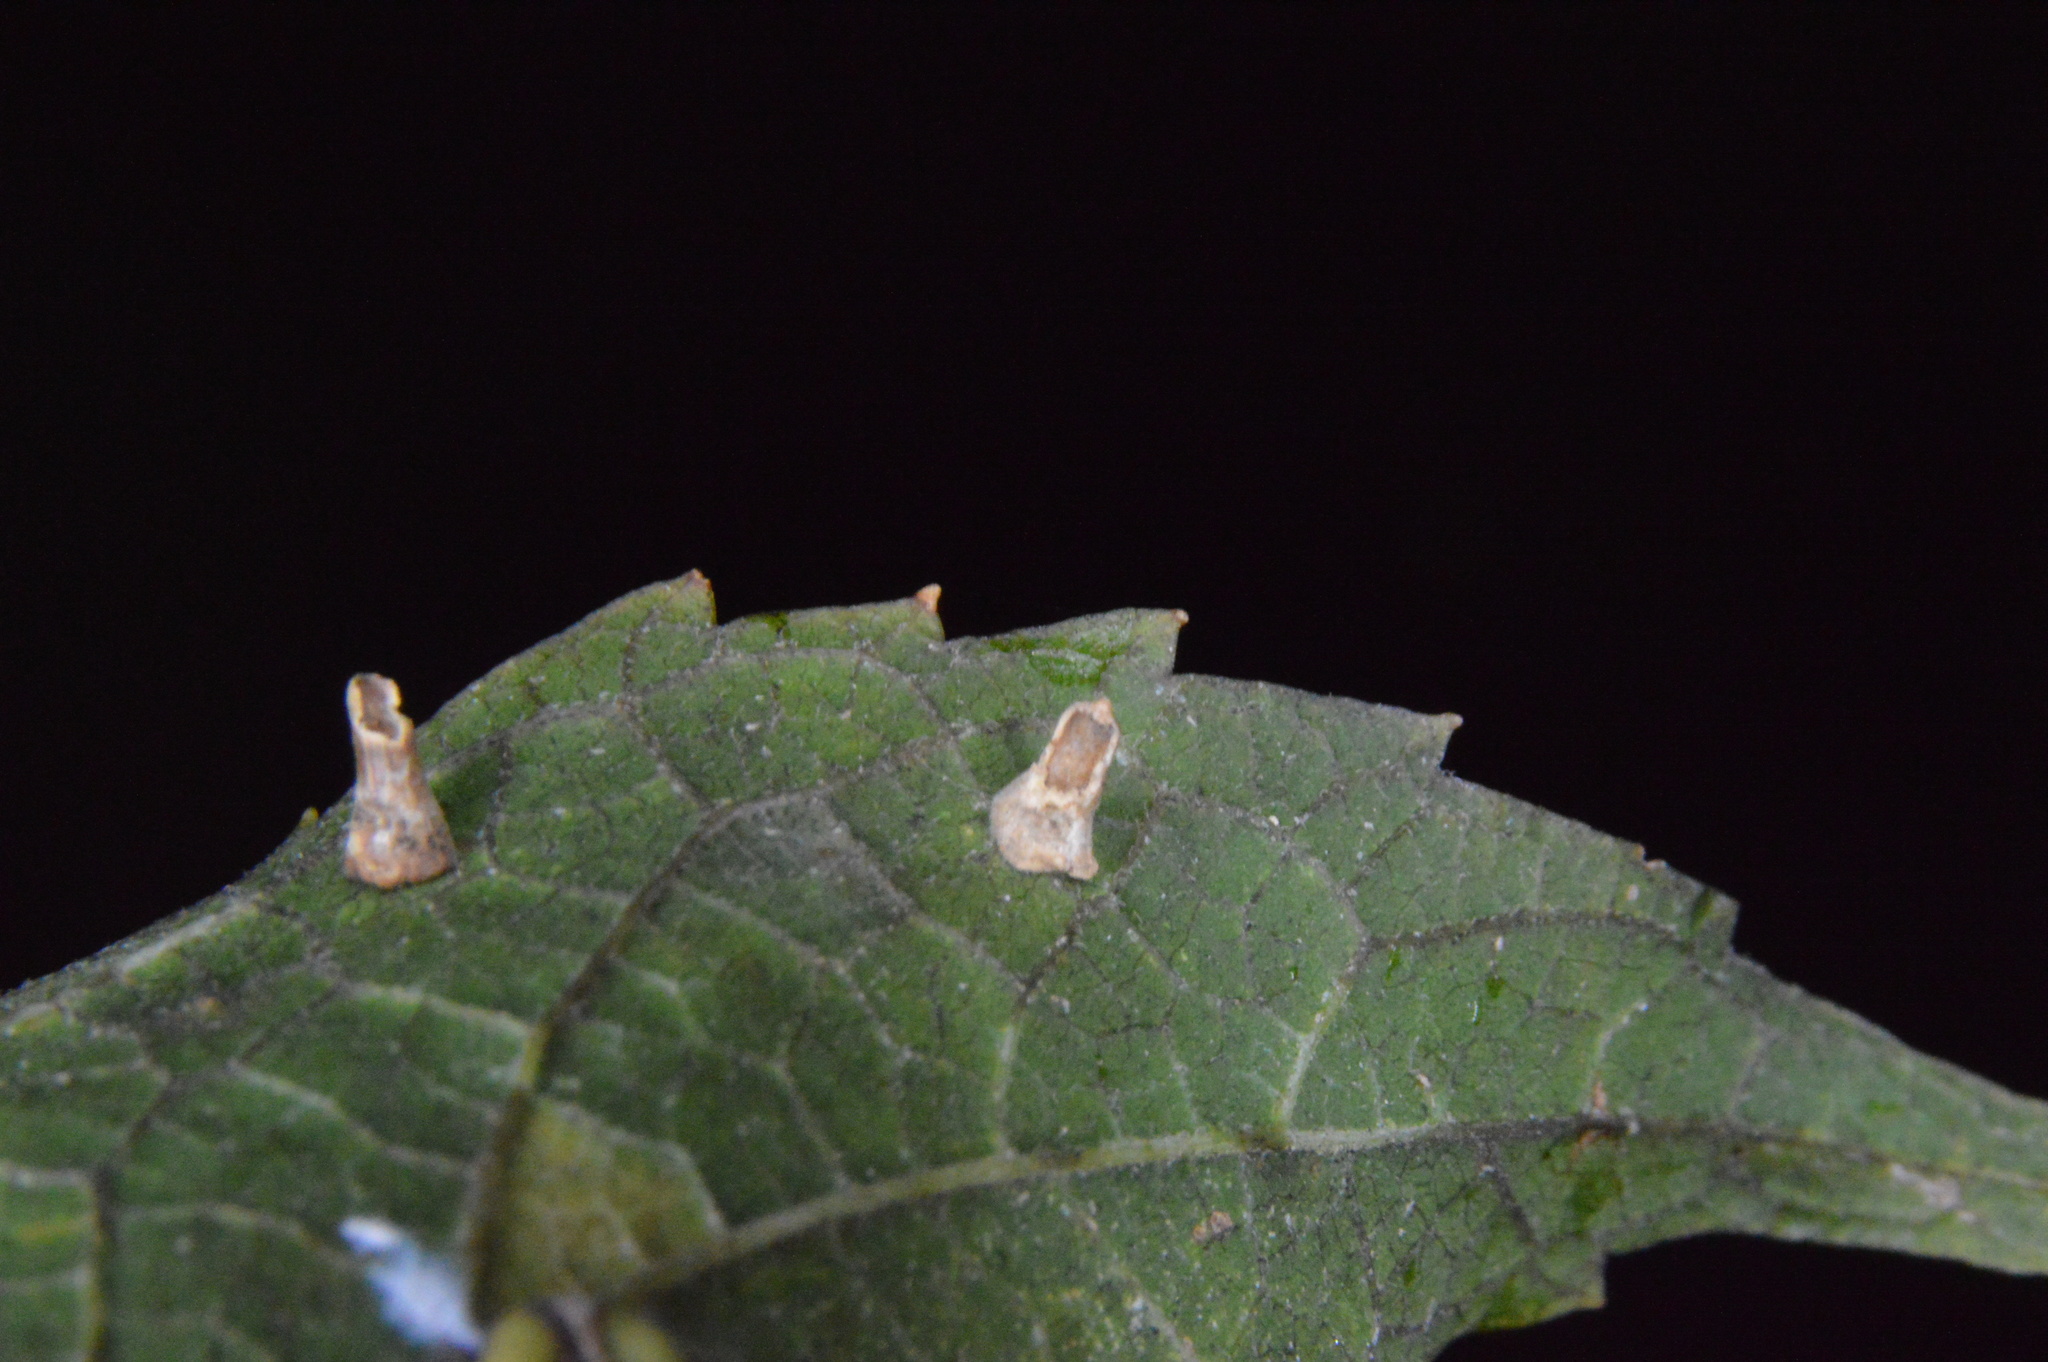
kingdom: Animalia
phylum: Arthropoda
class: Insecta
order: Diptera
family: Cecidomyiidae
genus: Celticecis
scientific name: Celticecis aciculata
